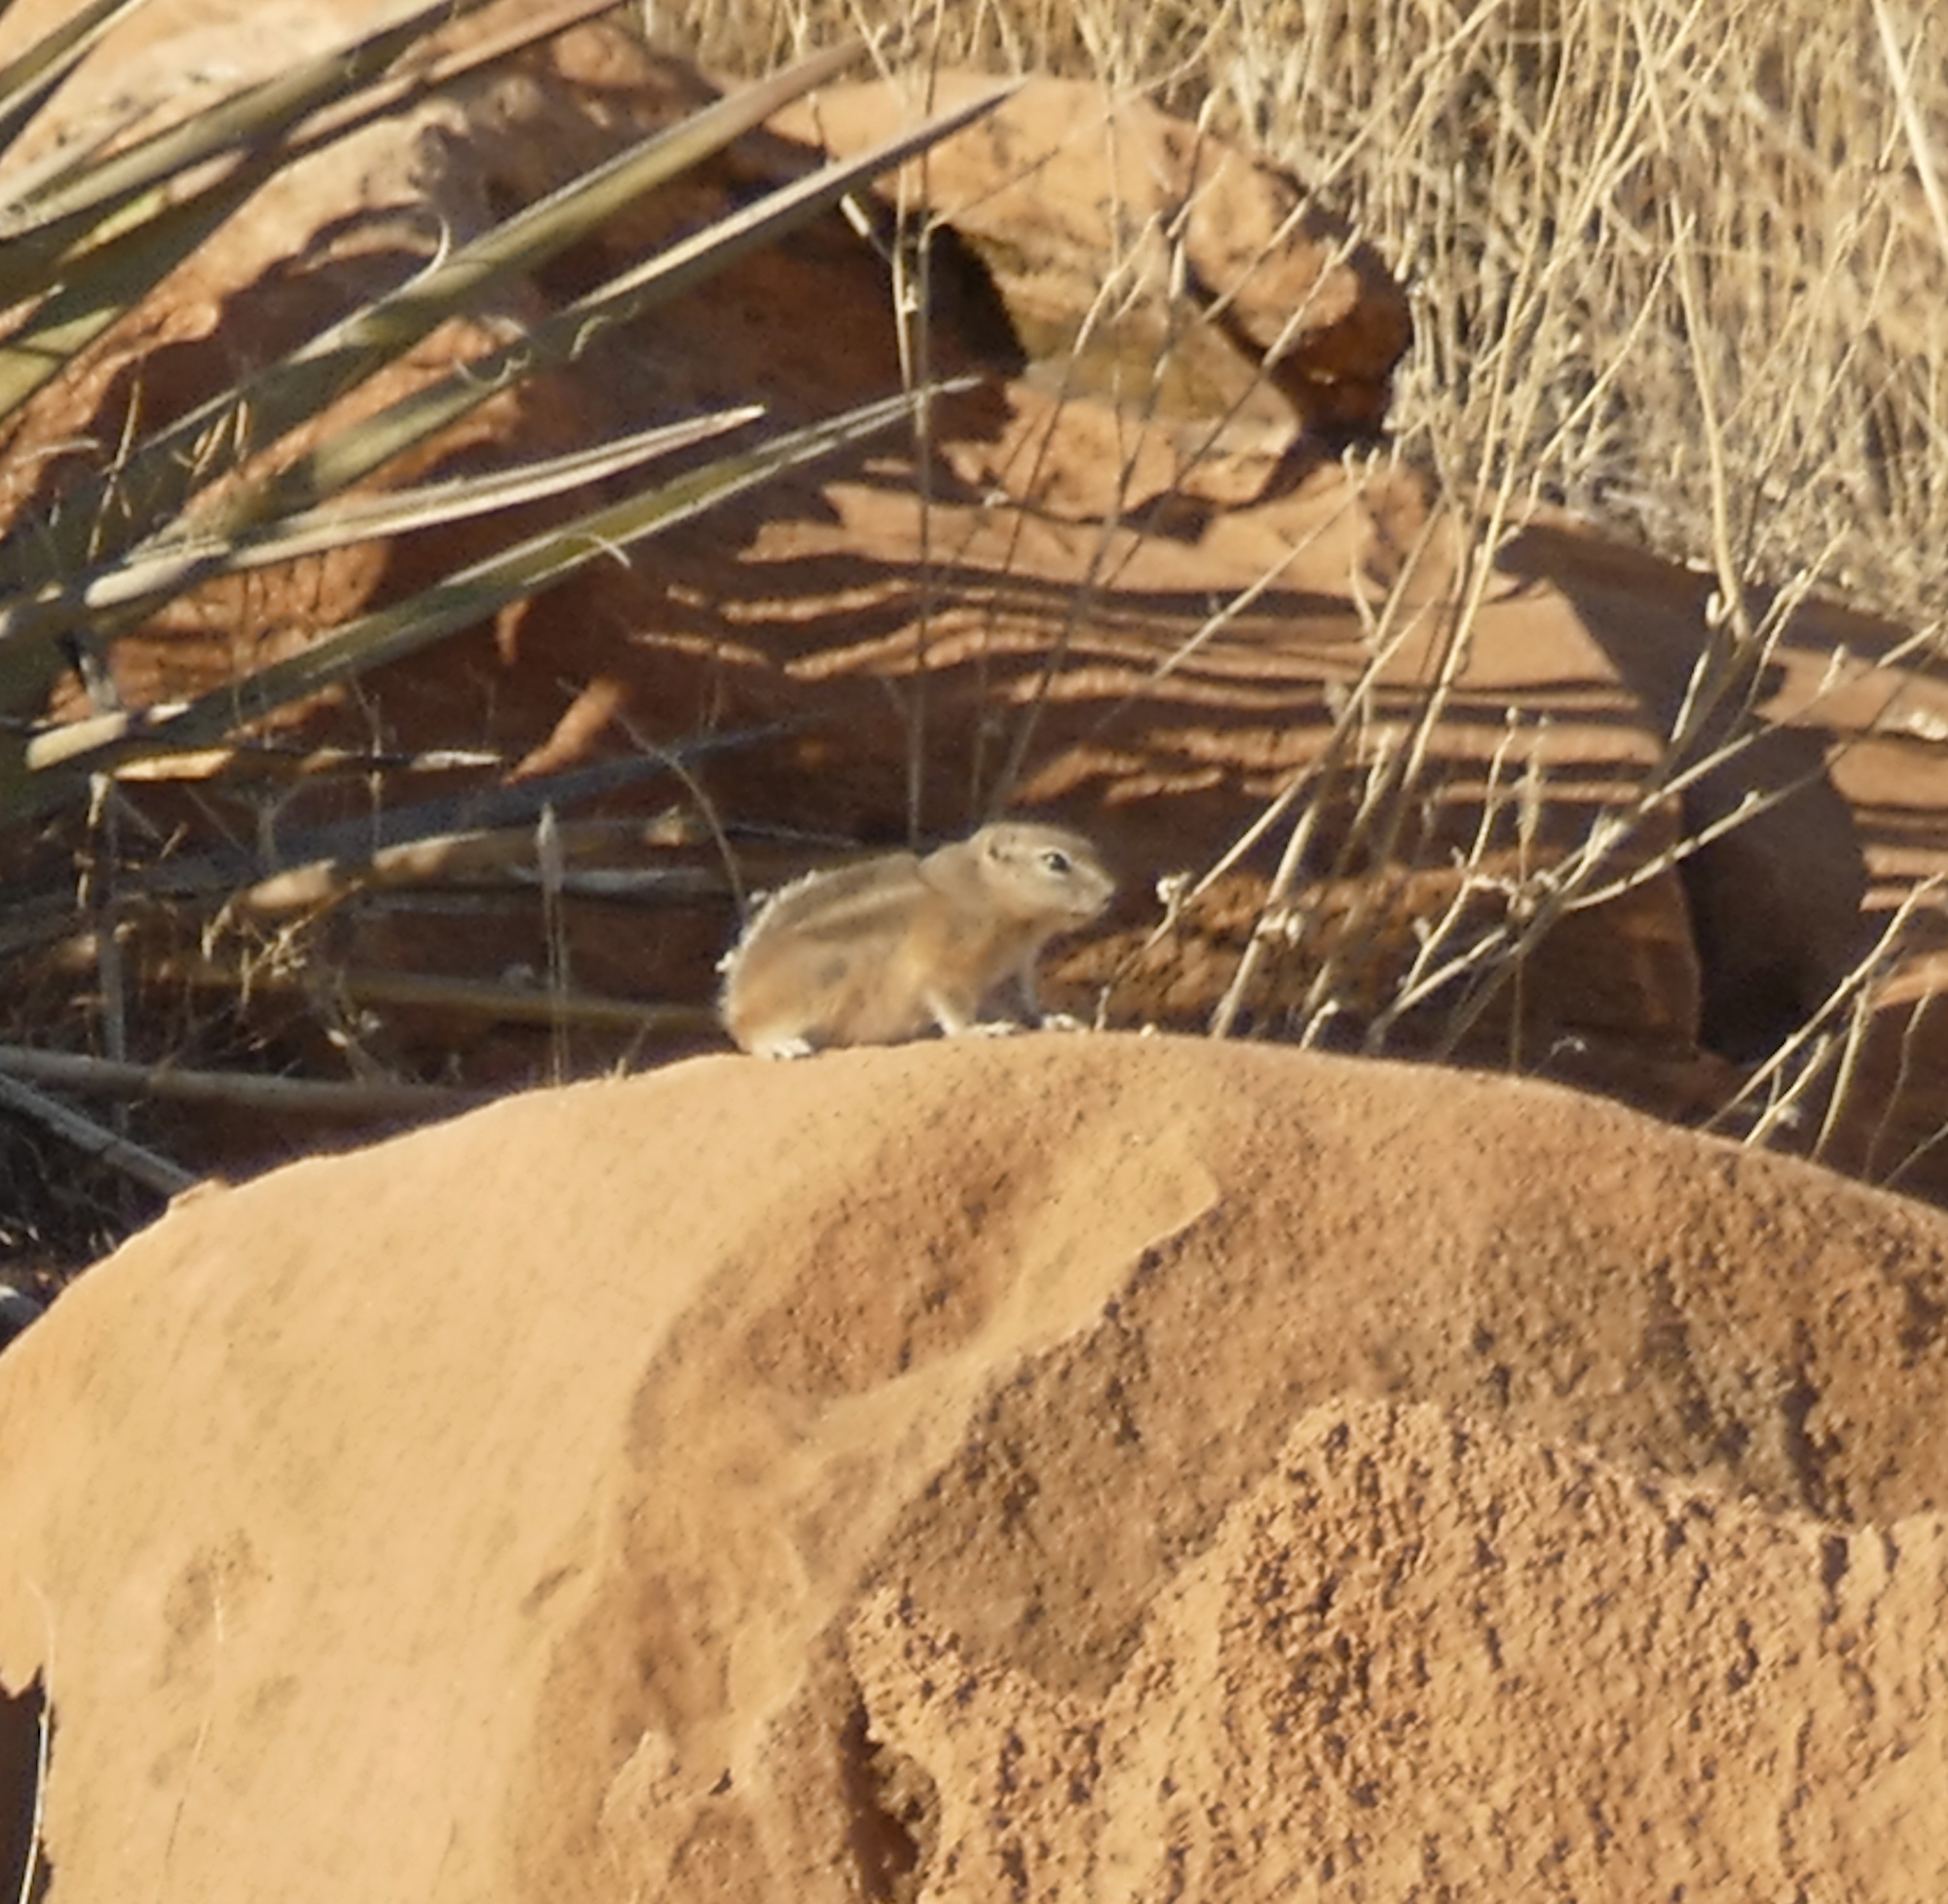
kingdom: Animalia
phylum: Chordata
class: Mammalia
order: Rodentia
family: Sciuridae
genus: Ammospermophilus
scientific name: Ammospermophilus leucurus
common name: White-tailed antelope squirrel
